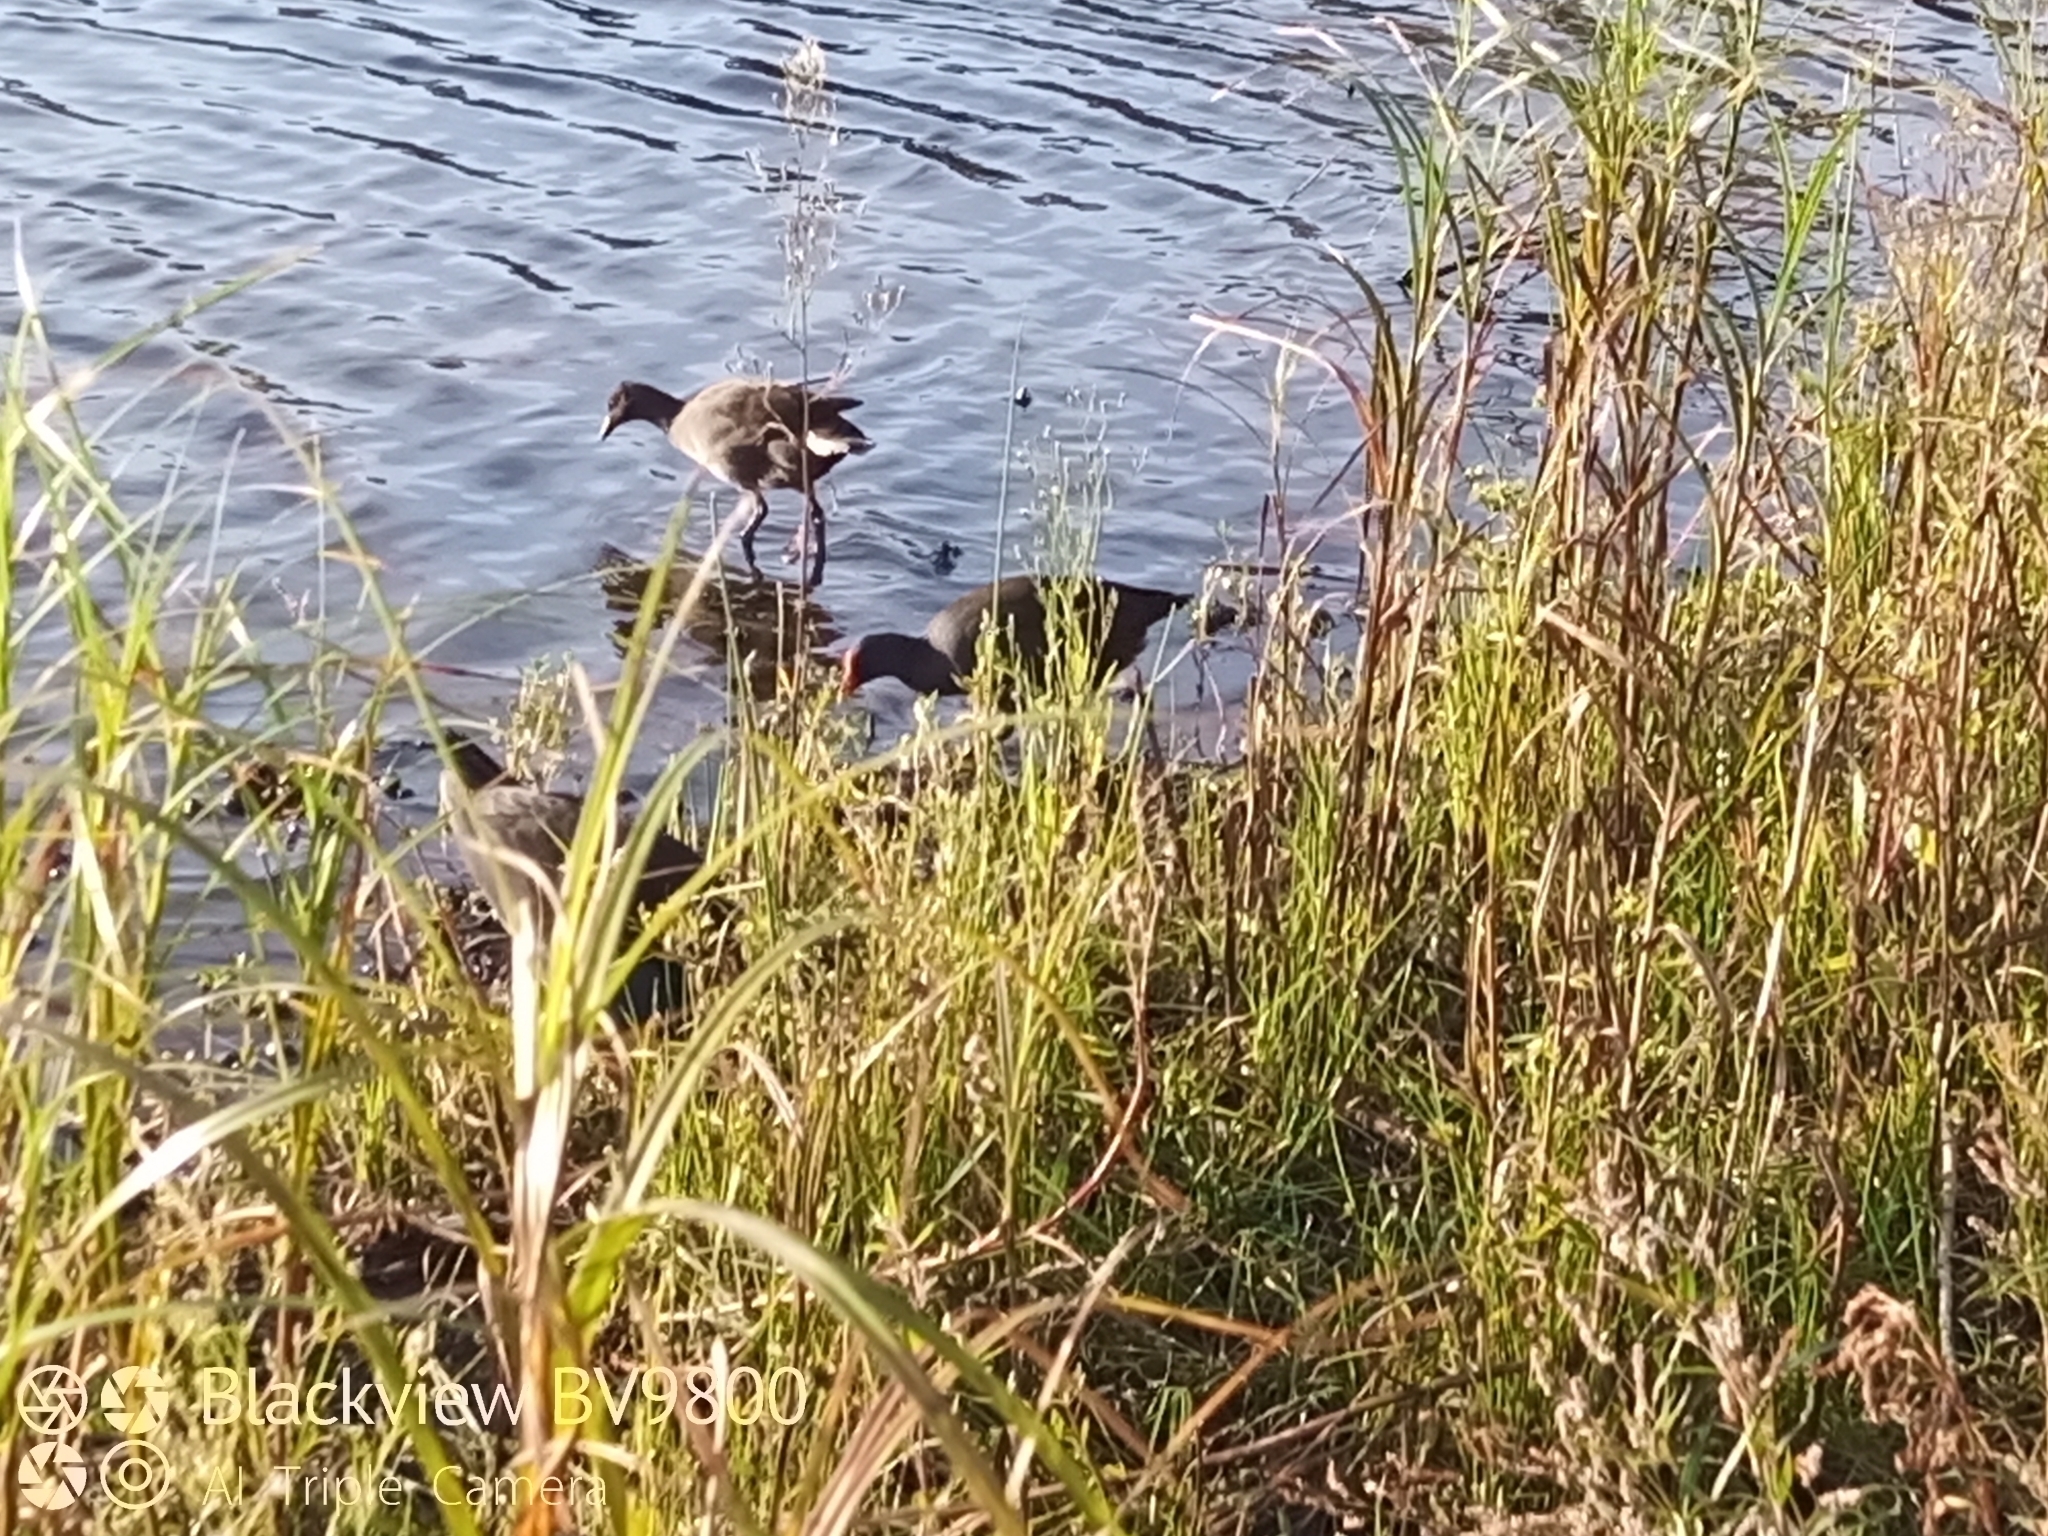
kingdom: Animalia
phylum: Chordata
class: Aves
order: Gruiformes
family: Rallidae
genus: Gallinula
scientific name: Gallinula tenebrosa
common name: Dusky moorhen
